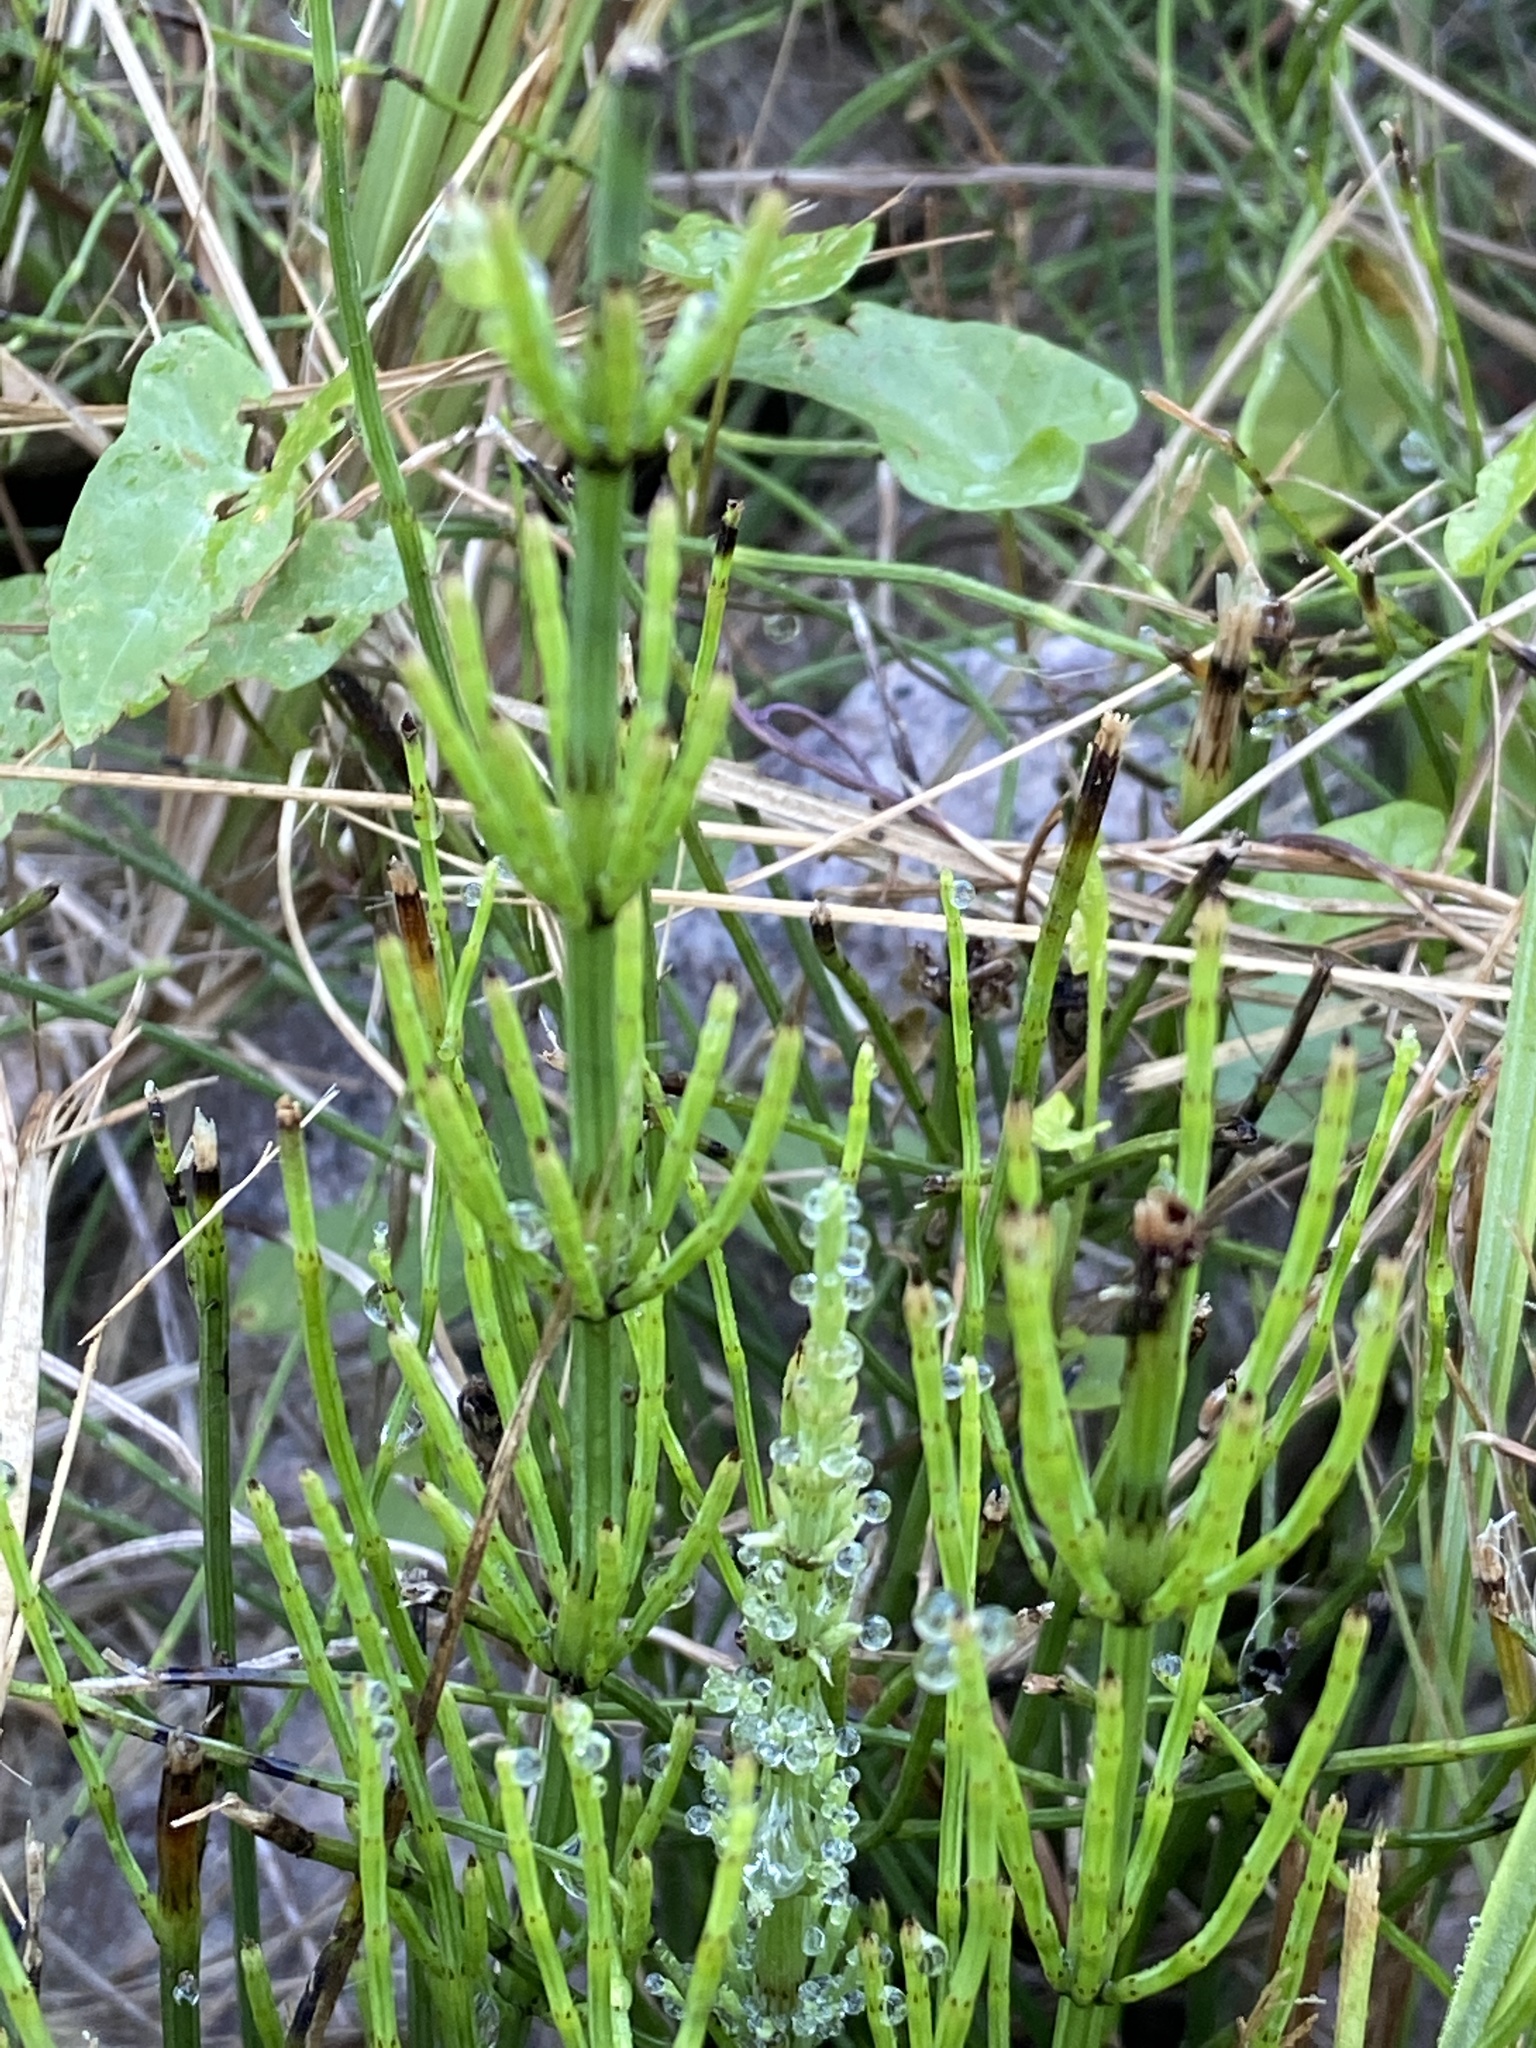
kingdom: Plantae
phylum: Tracheophyta
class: Polypodiopsida
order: Equisetales
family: Equisetaceae
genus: Equisetum
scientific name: Equisetum palustre
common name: Marsh horsetail
